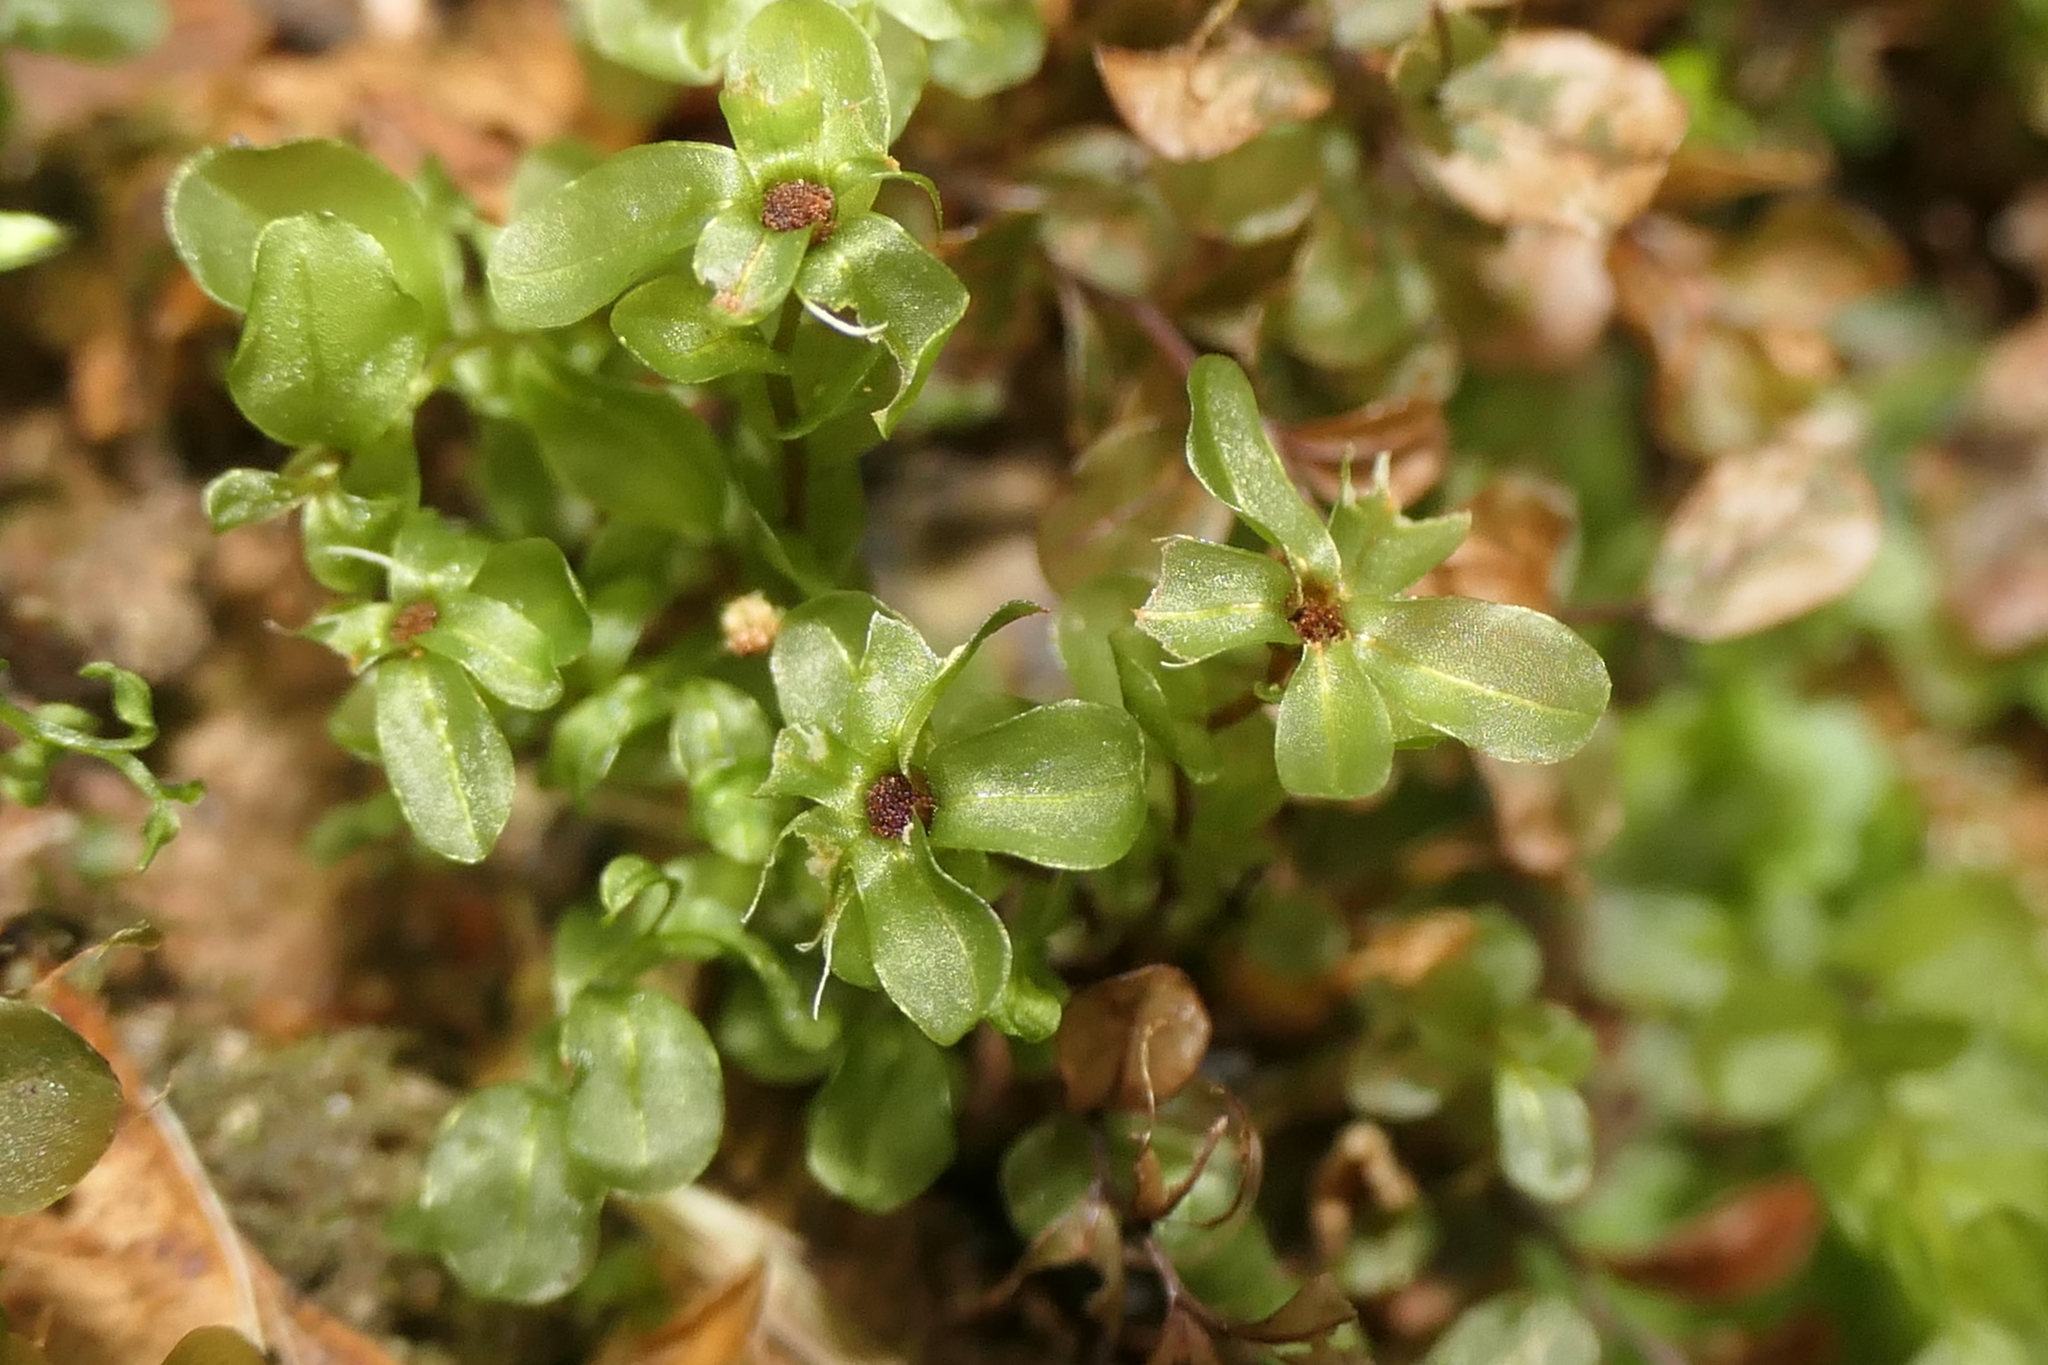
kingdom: Plantae
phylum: Bryophyta
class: Bryopsida
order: Bryales
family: Mniaceae
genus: Rhizomnium
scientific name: Rhizomnium punctatum
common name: Dotted leafy moss
